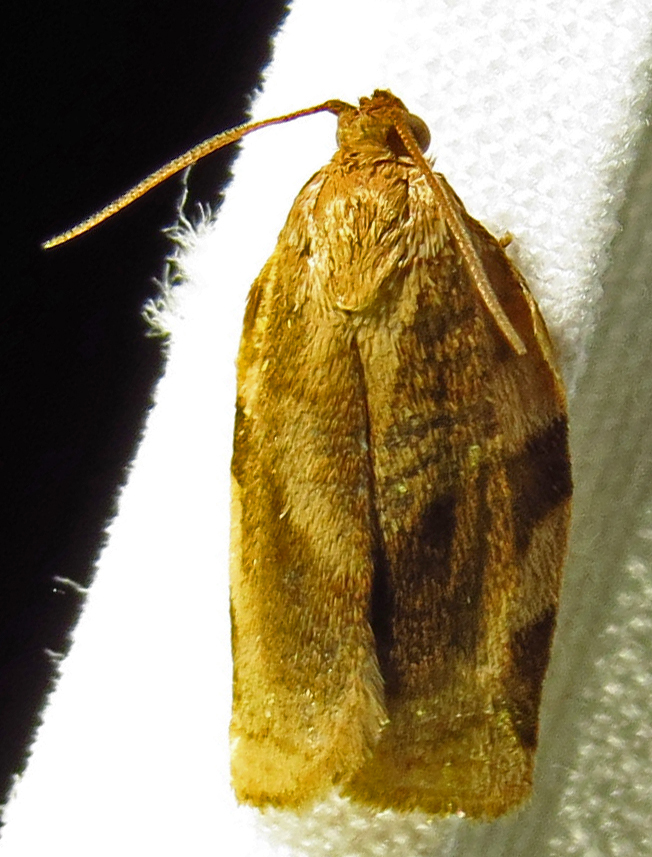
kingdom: Animalia
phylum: Arthropoda
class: Insecta
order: Lepidoptera
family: Tortricidae
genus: Choristoneura
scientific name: Choristoneura fractivittana
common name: Broken-banded leafroller moth
